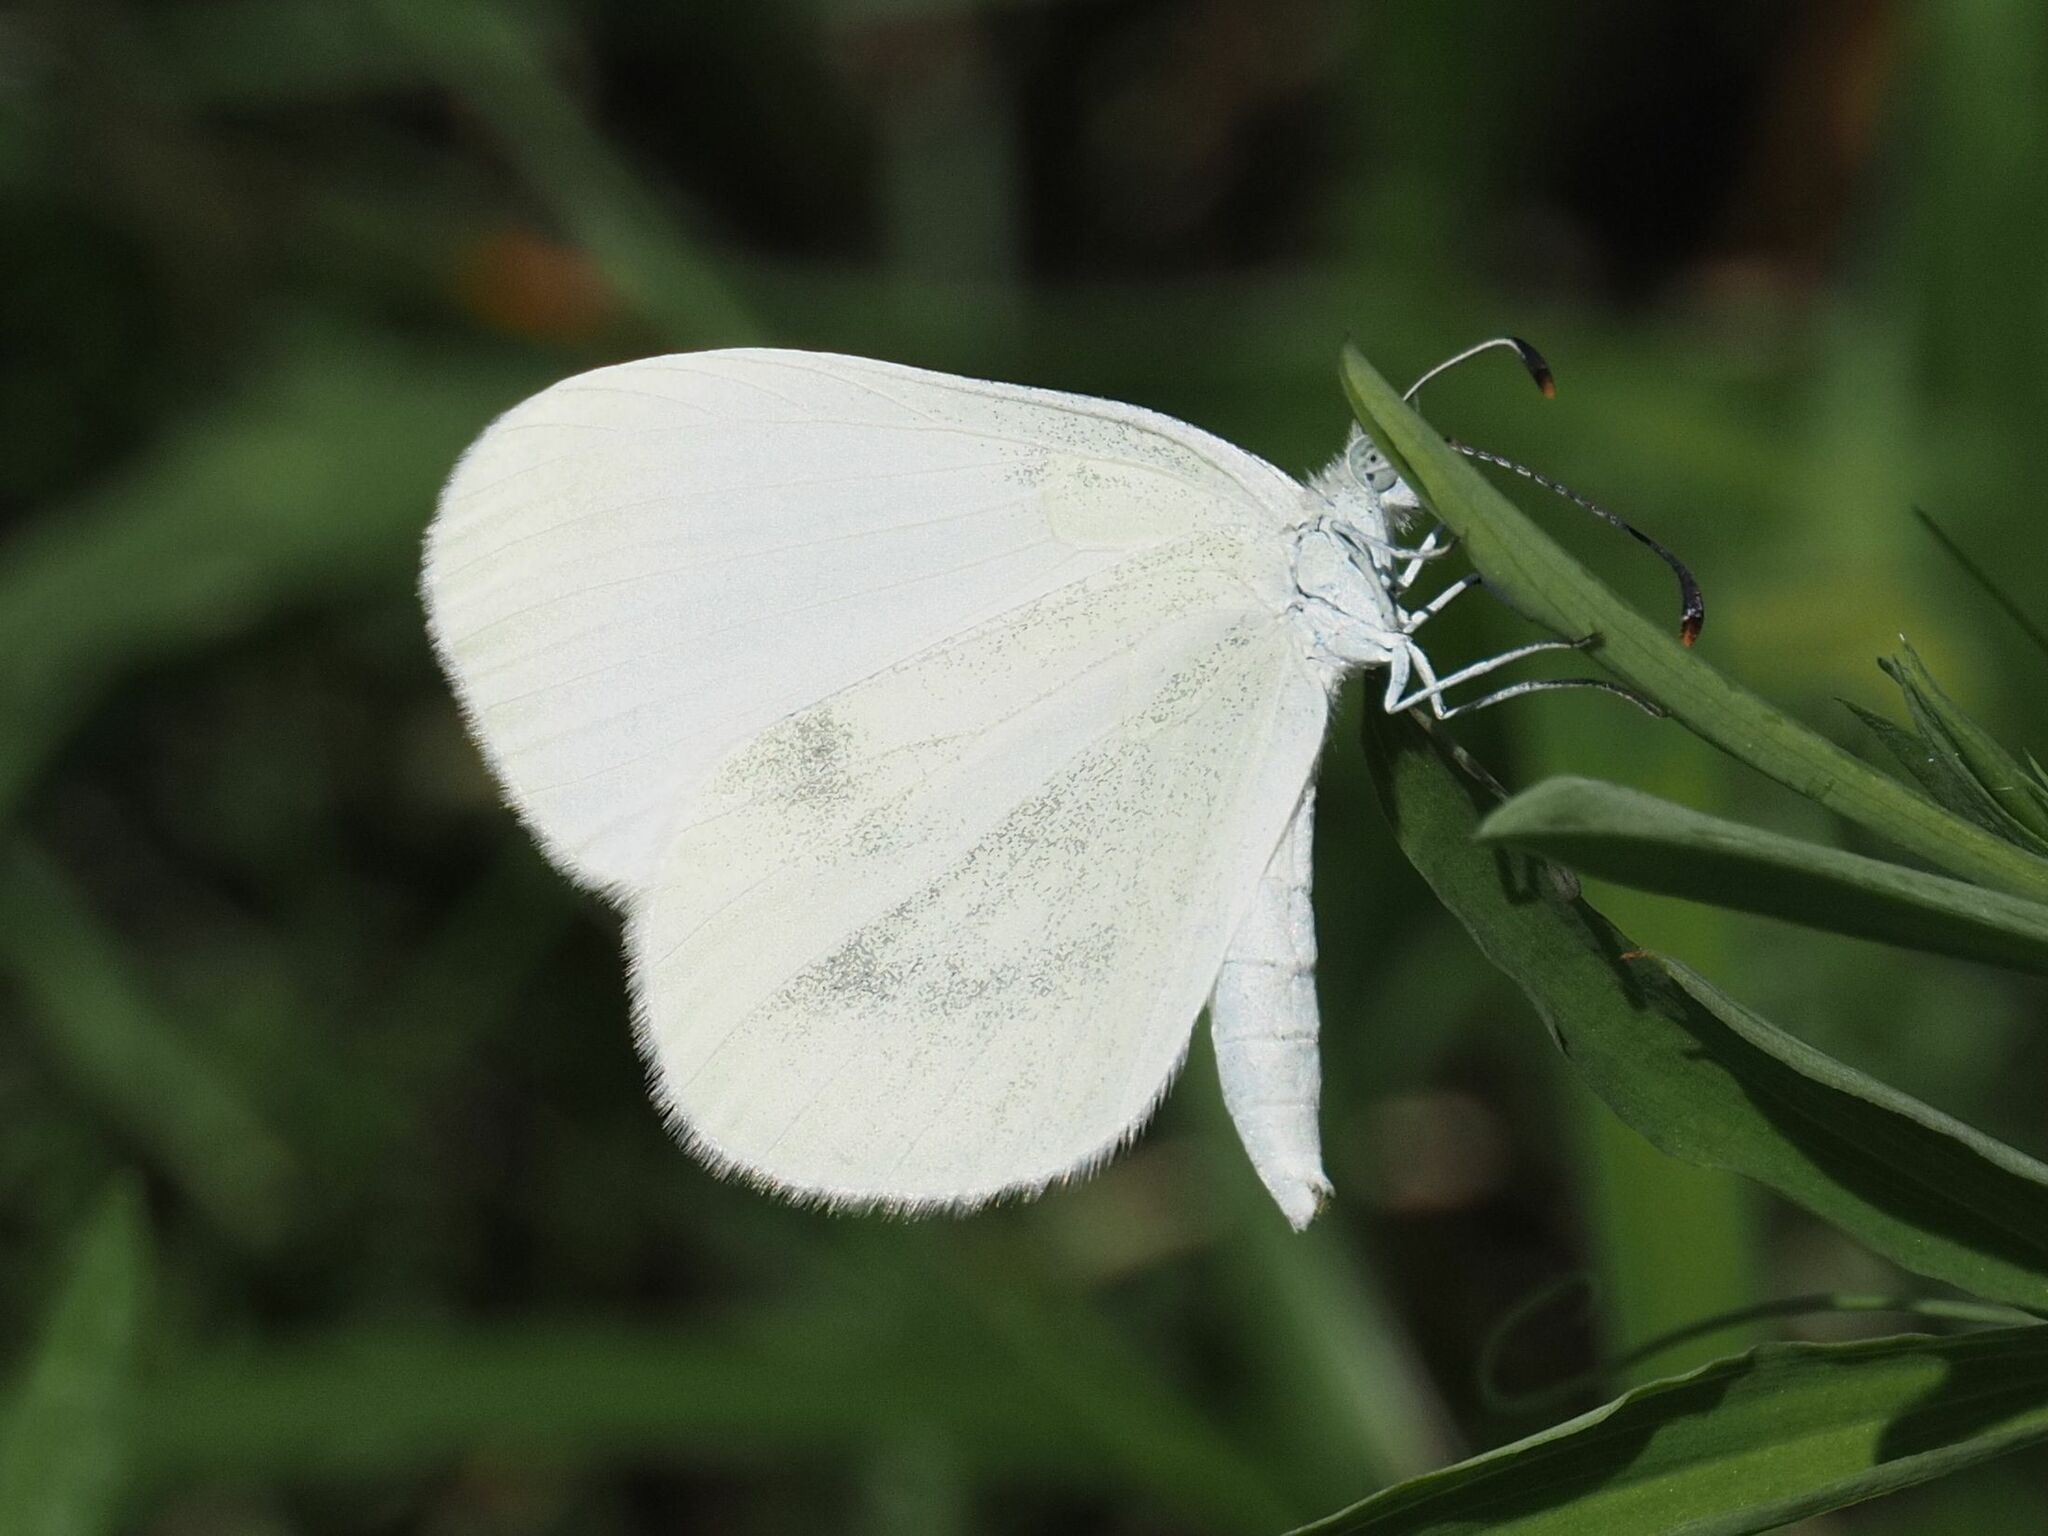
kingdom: Animalia
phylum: Arthropoda
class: Insecta
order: Lepidoptera
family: Pieridae
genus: Leptidea
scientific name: Leptidea
